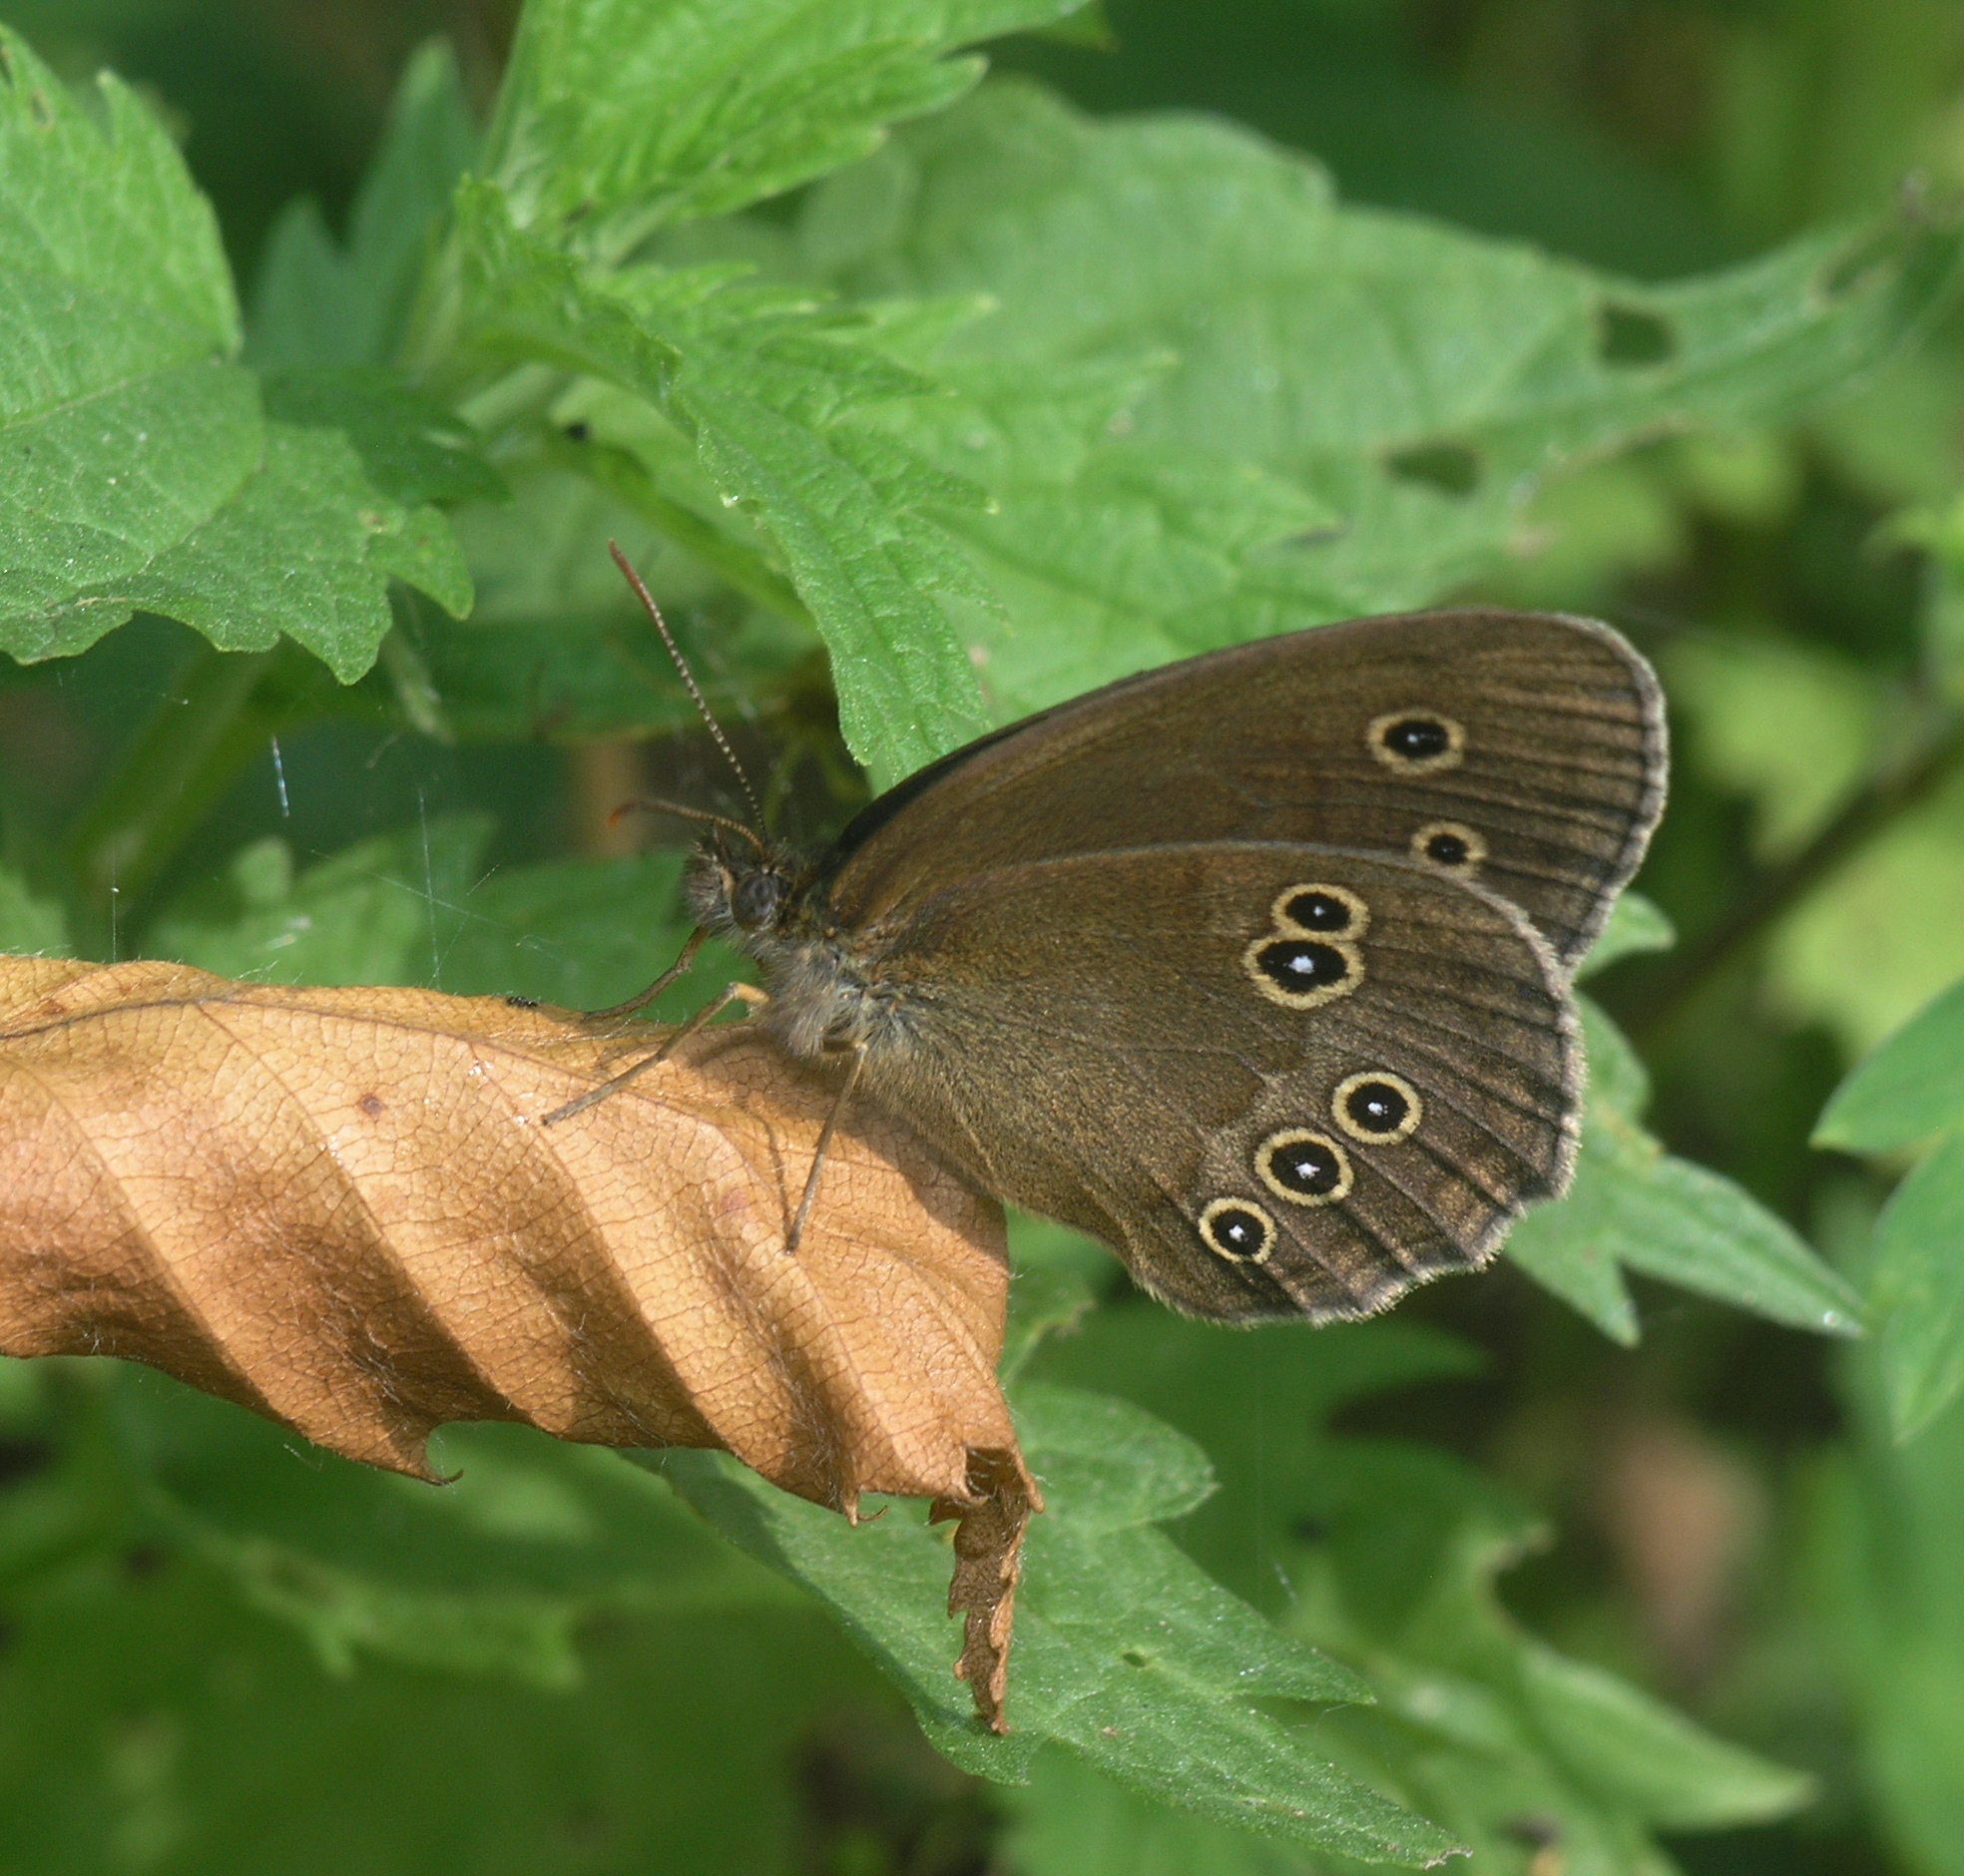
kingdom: Animalia
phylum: Arthropoda
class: Insecta
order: Lepidoptera
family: Nymphalidae
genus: Aphantopus
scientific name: Aphantopus hyperantus
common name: Ringlet
